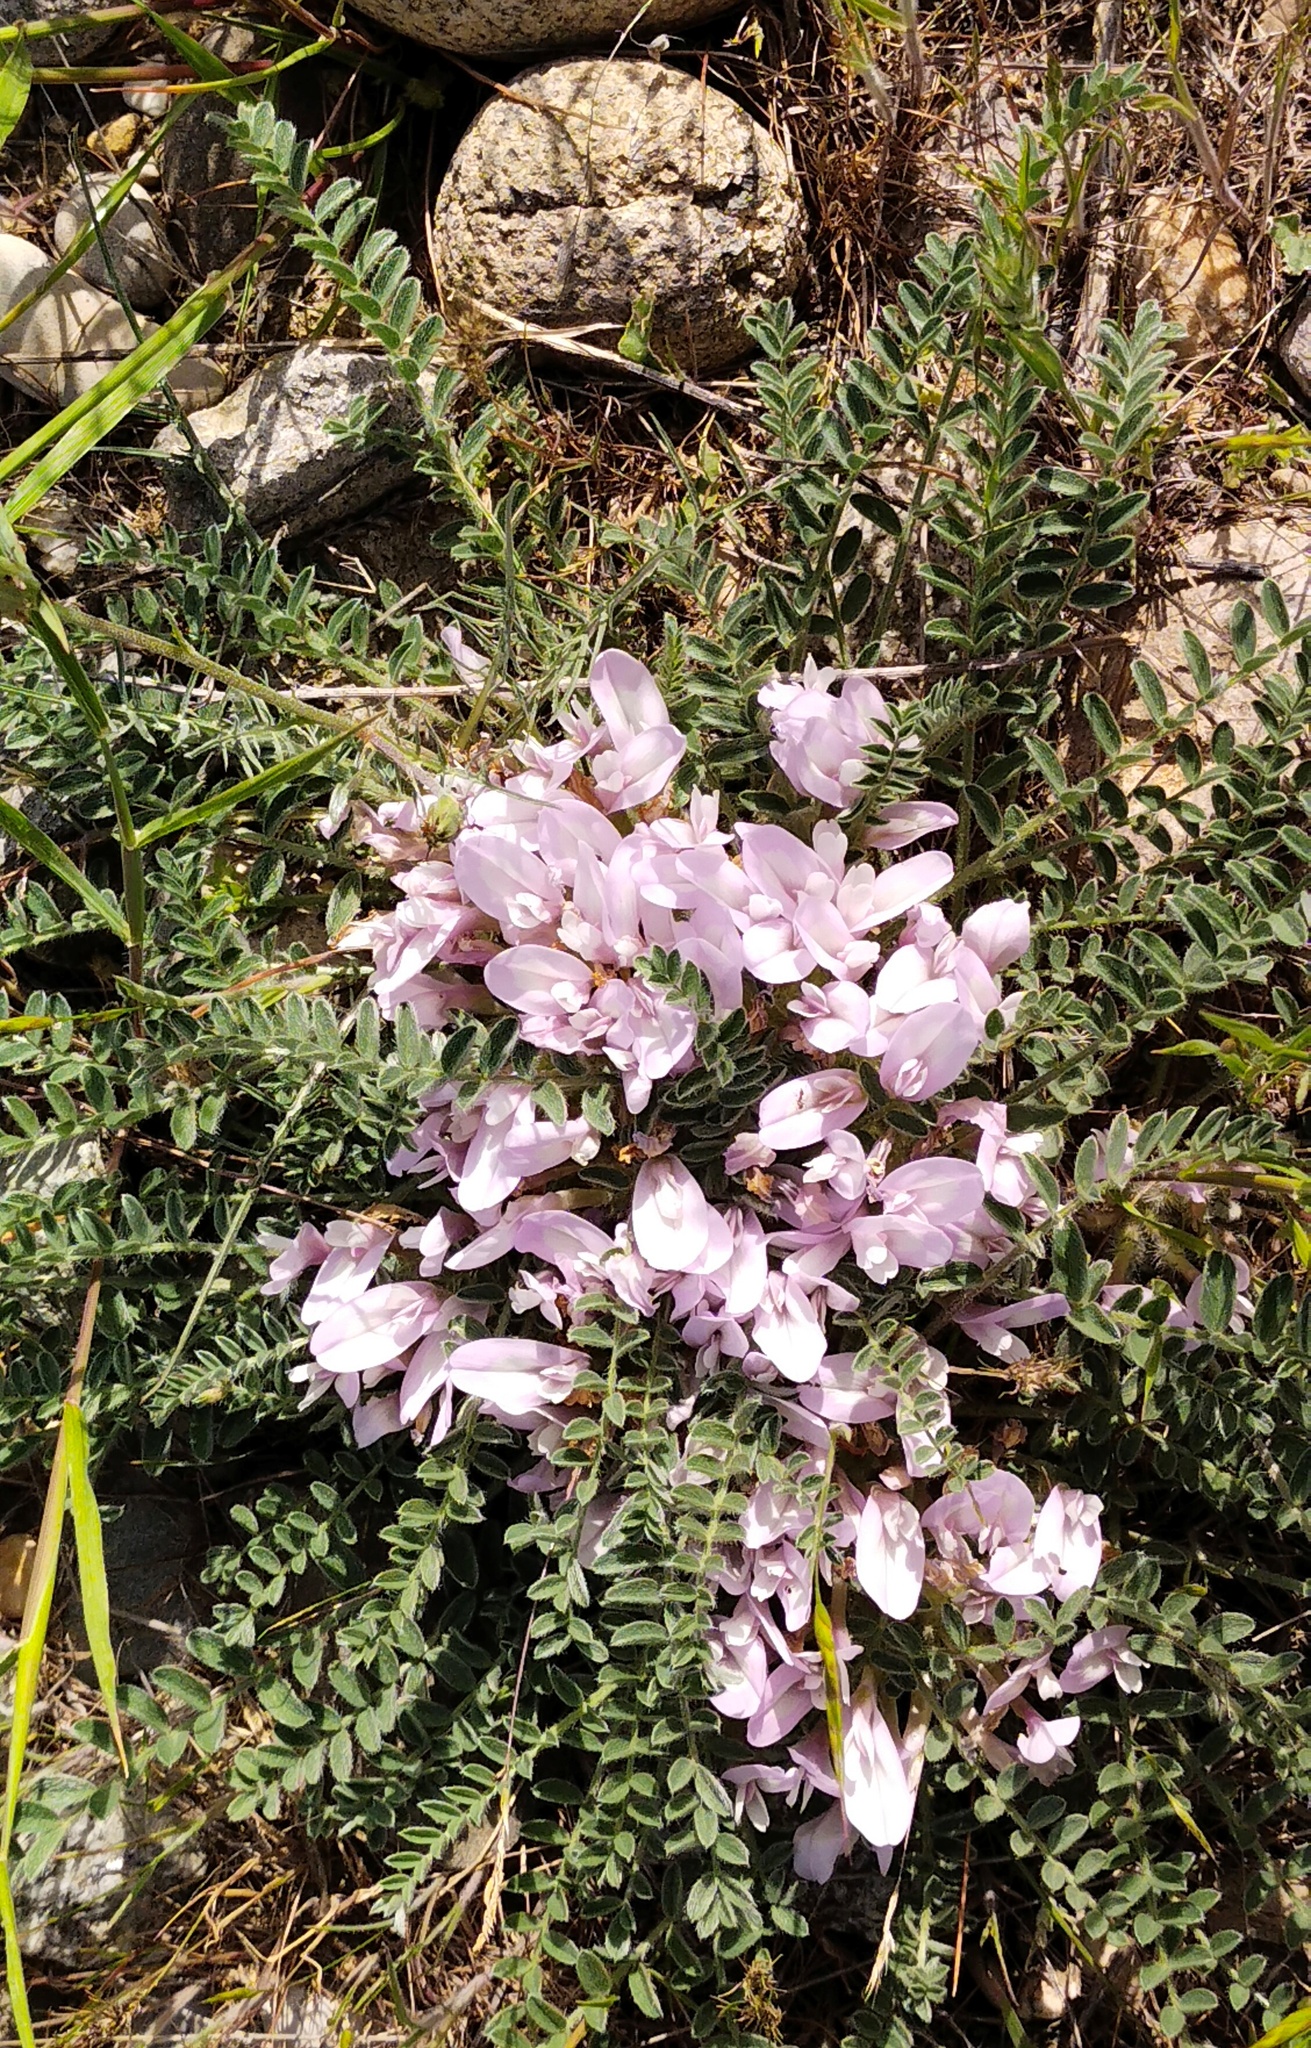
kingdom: Plantae
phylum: Tracheophyta
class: Magnoliopsida
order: Fabales
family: Fabaceae
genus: Astragalus
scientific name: Astragalus testiculatus
